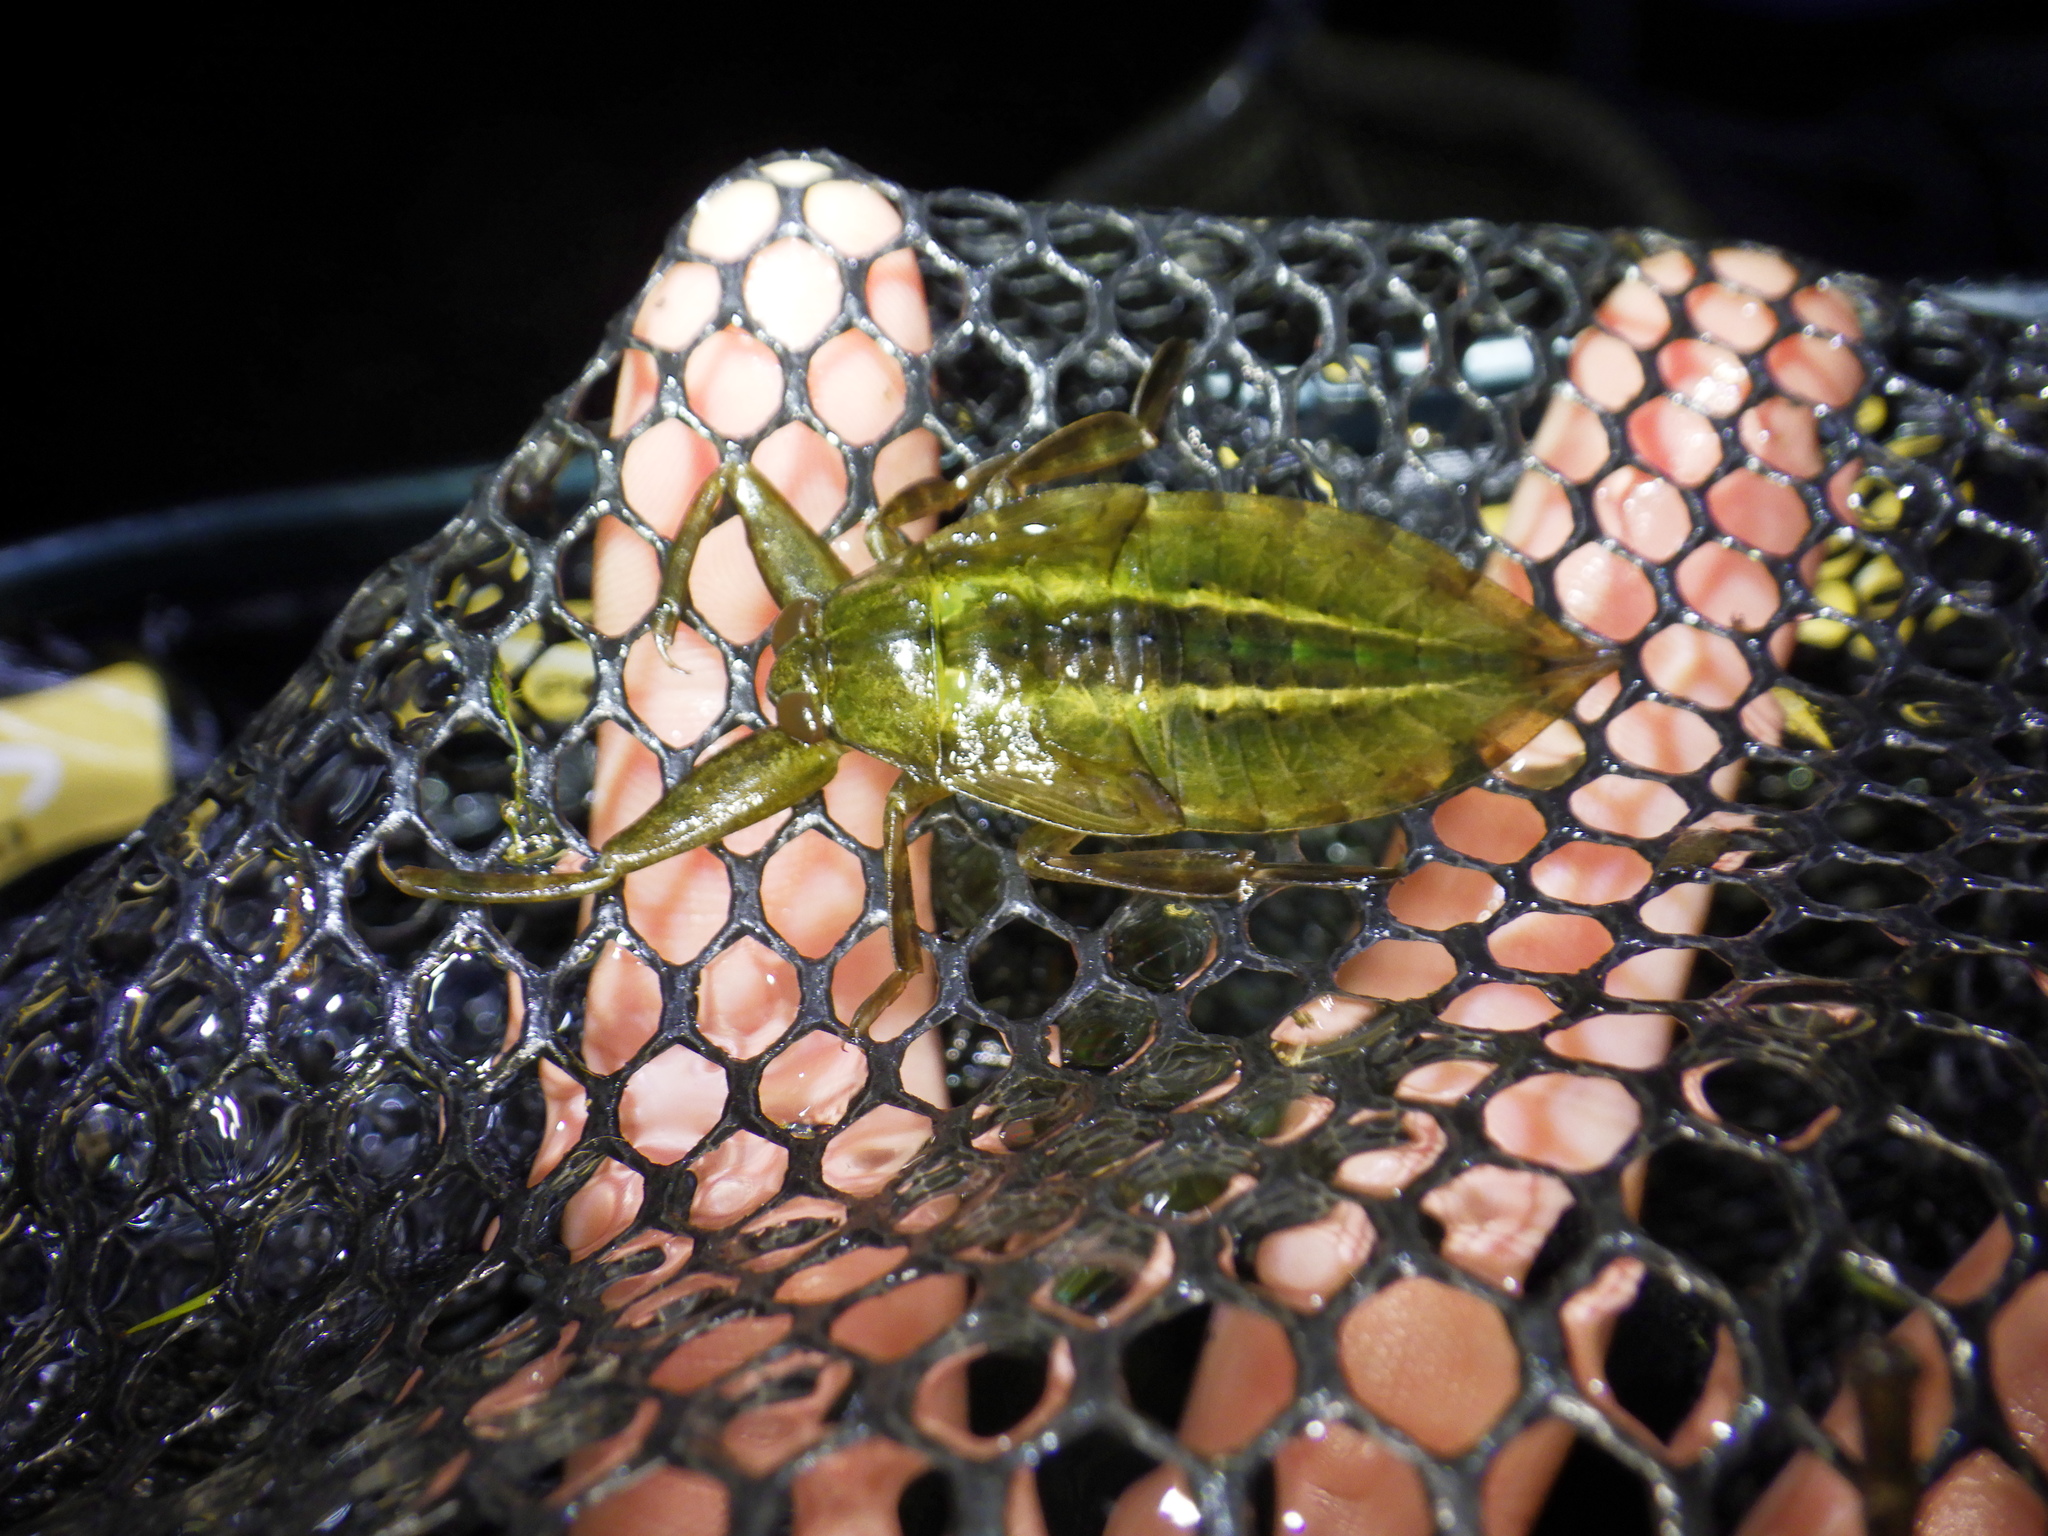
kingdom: Animalia
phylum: Arthropoda
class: Insecta
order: Hemiptera
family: Belostomatidae
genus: Lethocerus
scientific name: Lethocerus
